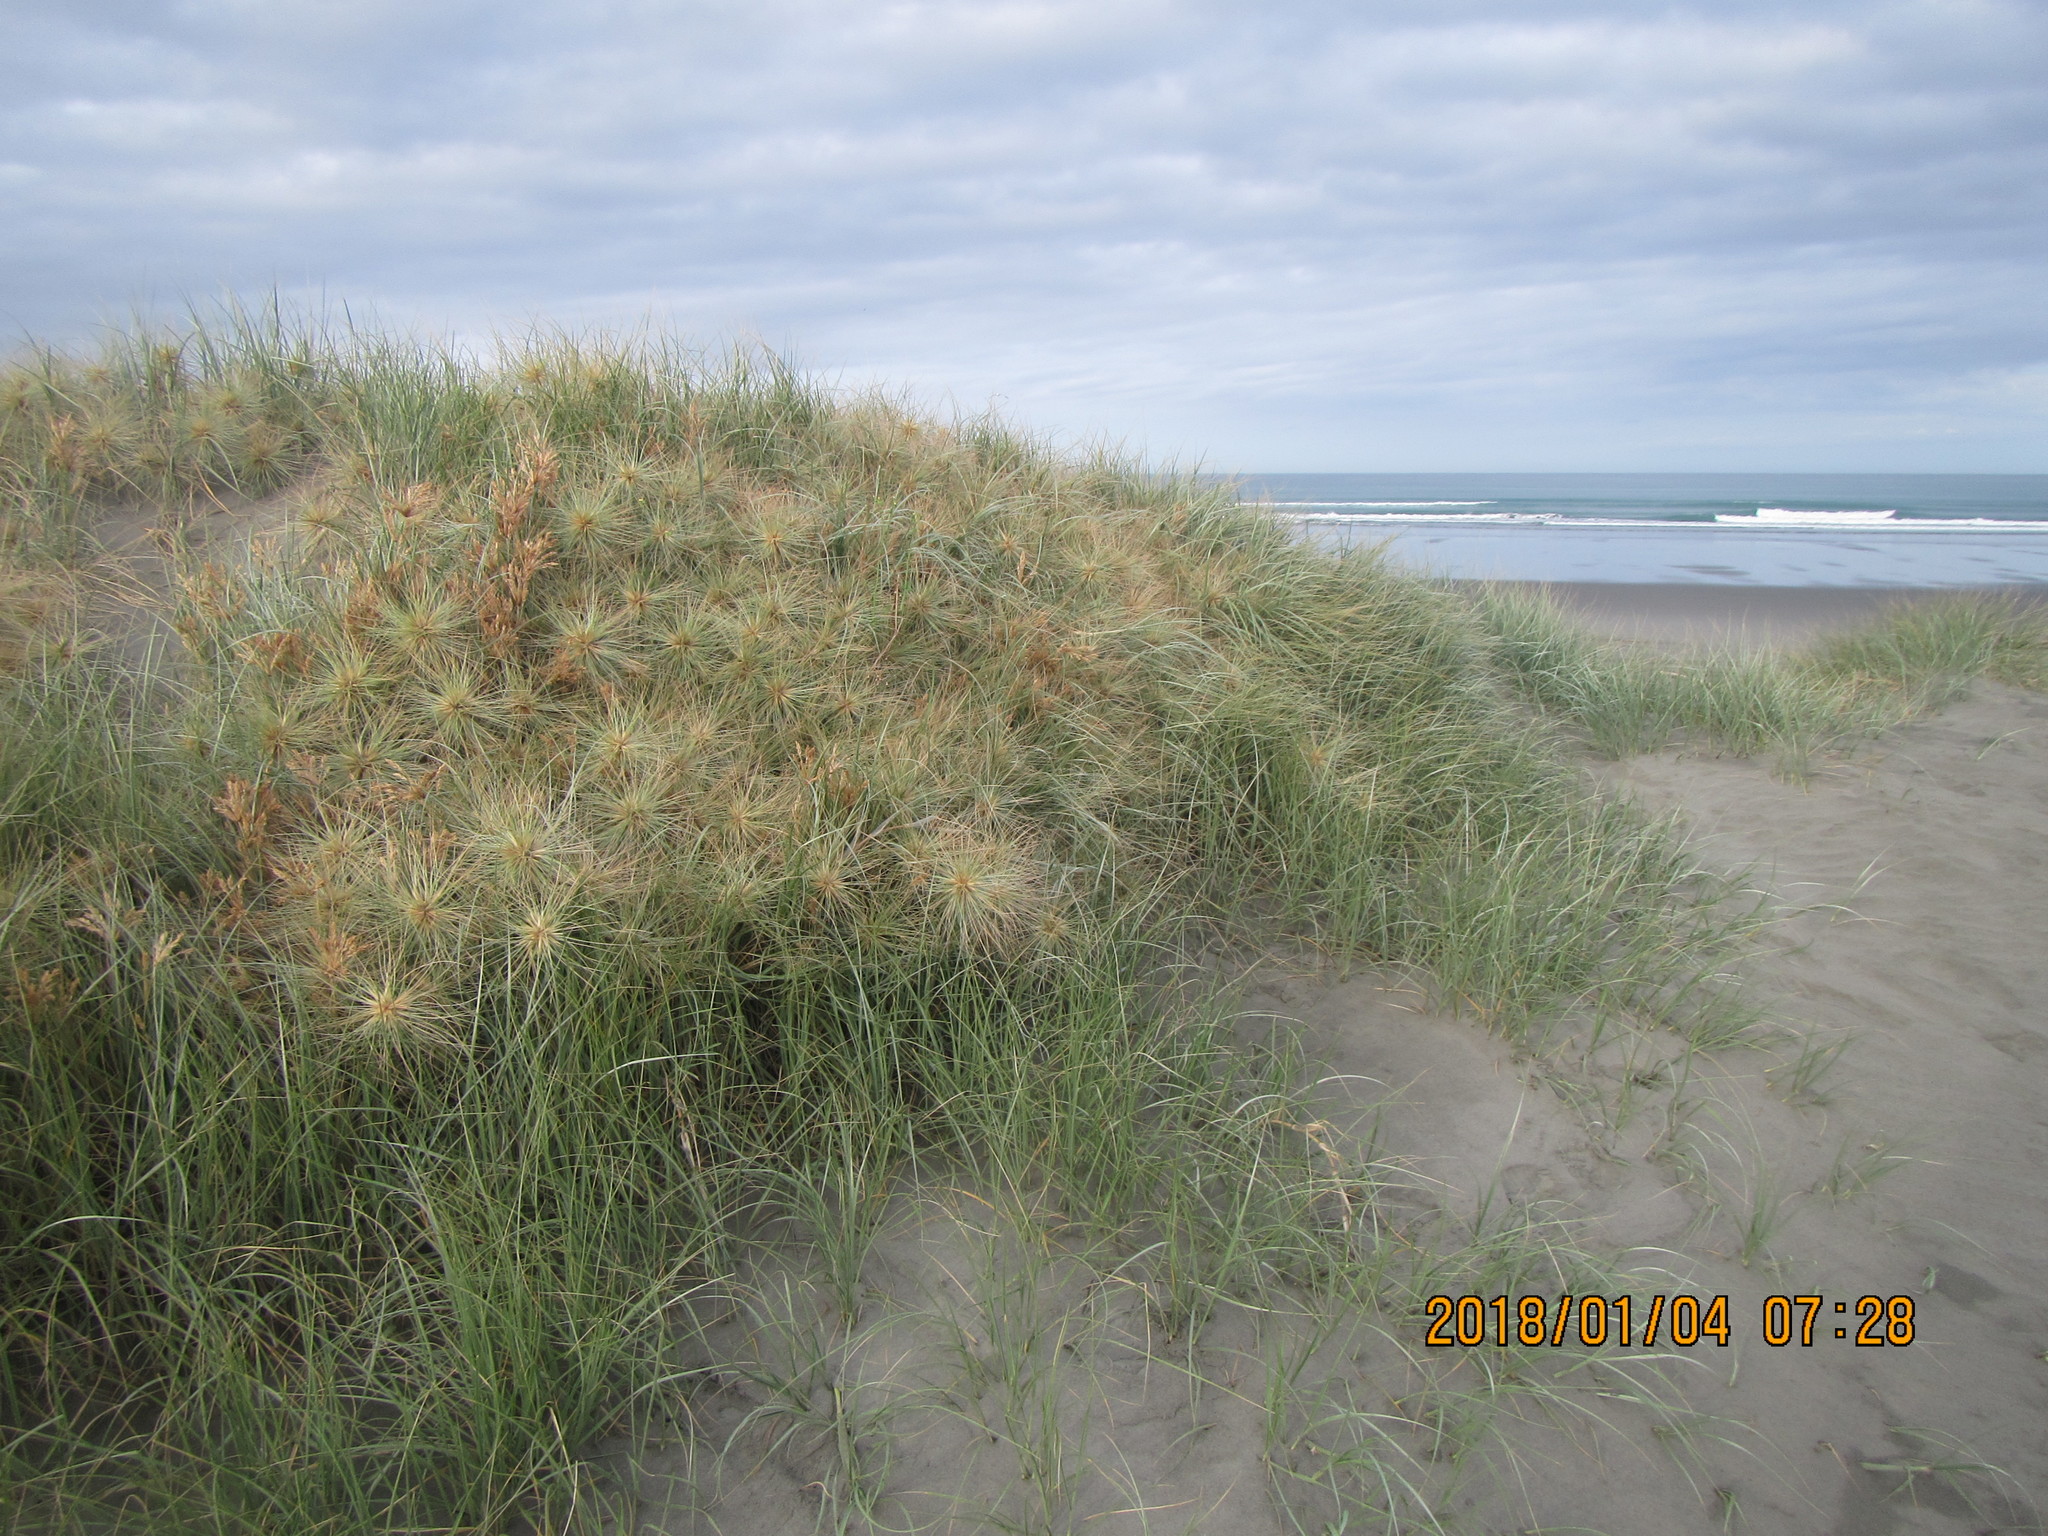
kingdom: Plantae
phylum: Tracheophyta
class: Liliopsida
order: Poales
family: Poaceae
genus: Spinifex
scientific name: Spinifex sericeus
